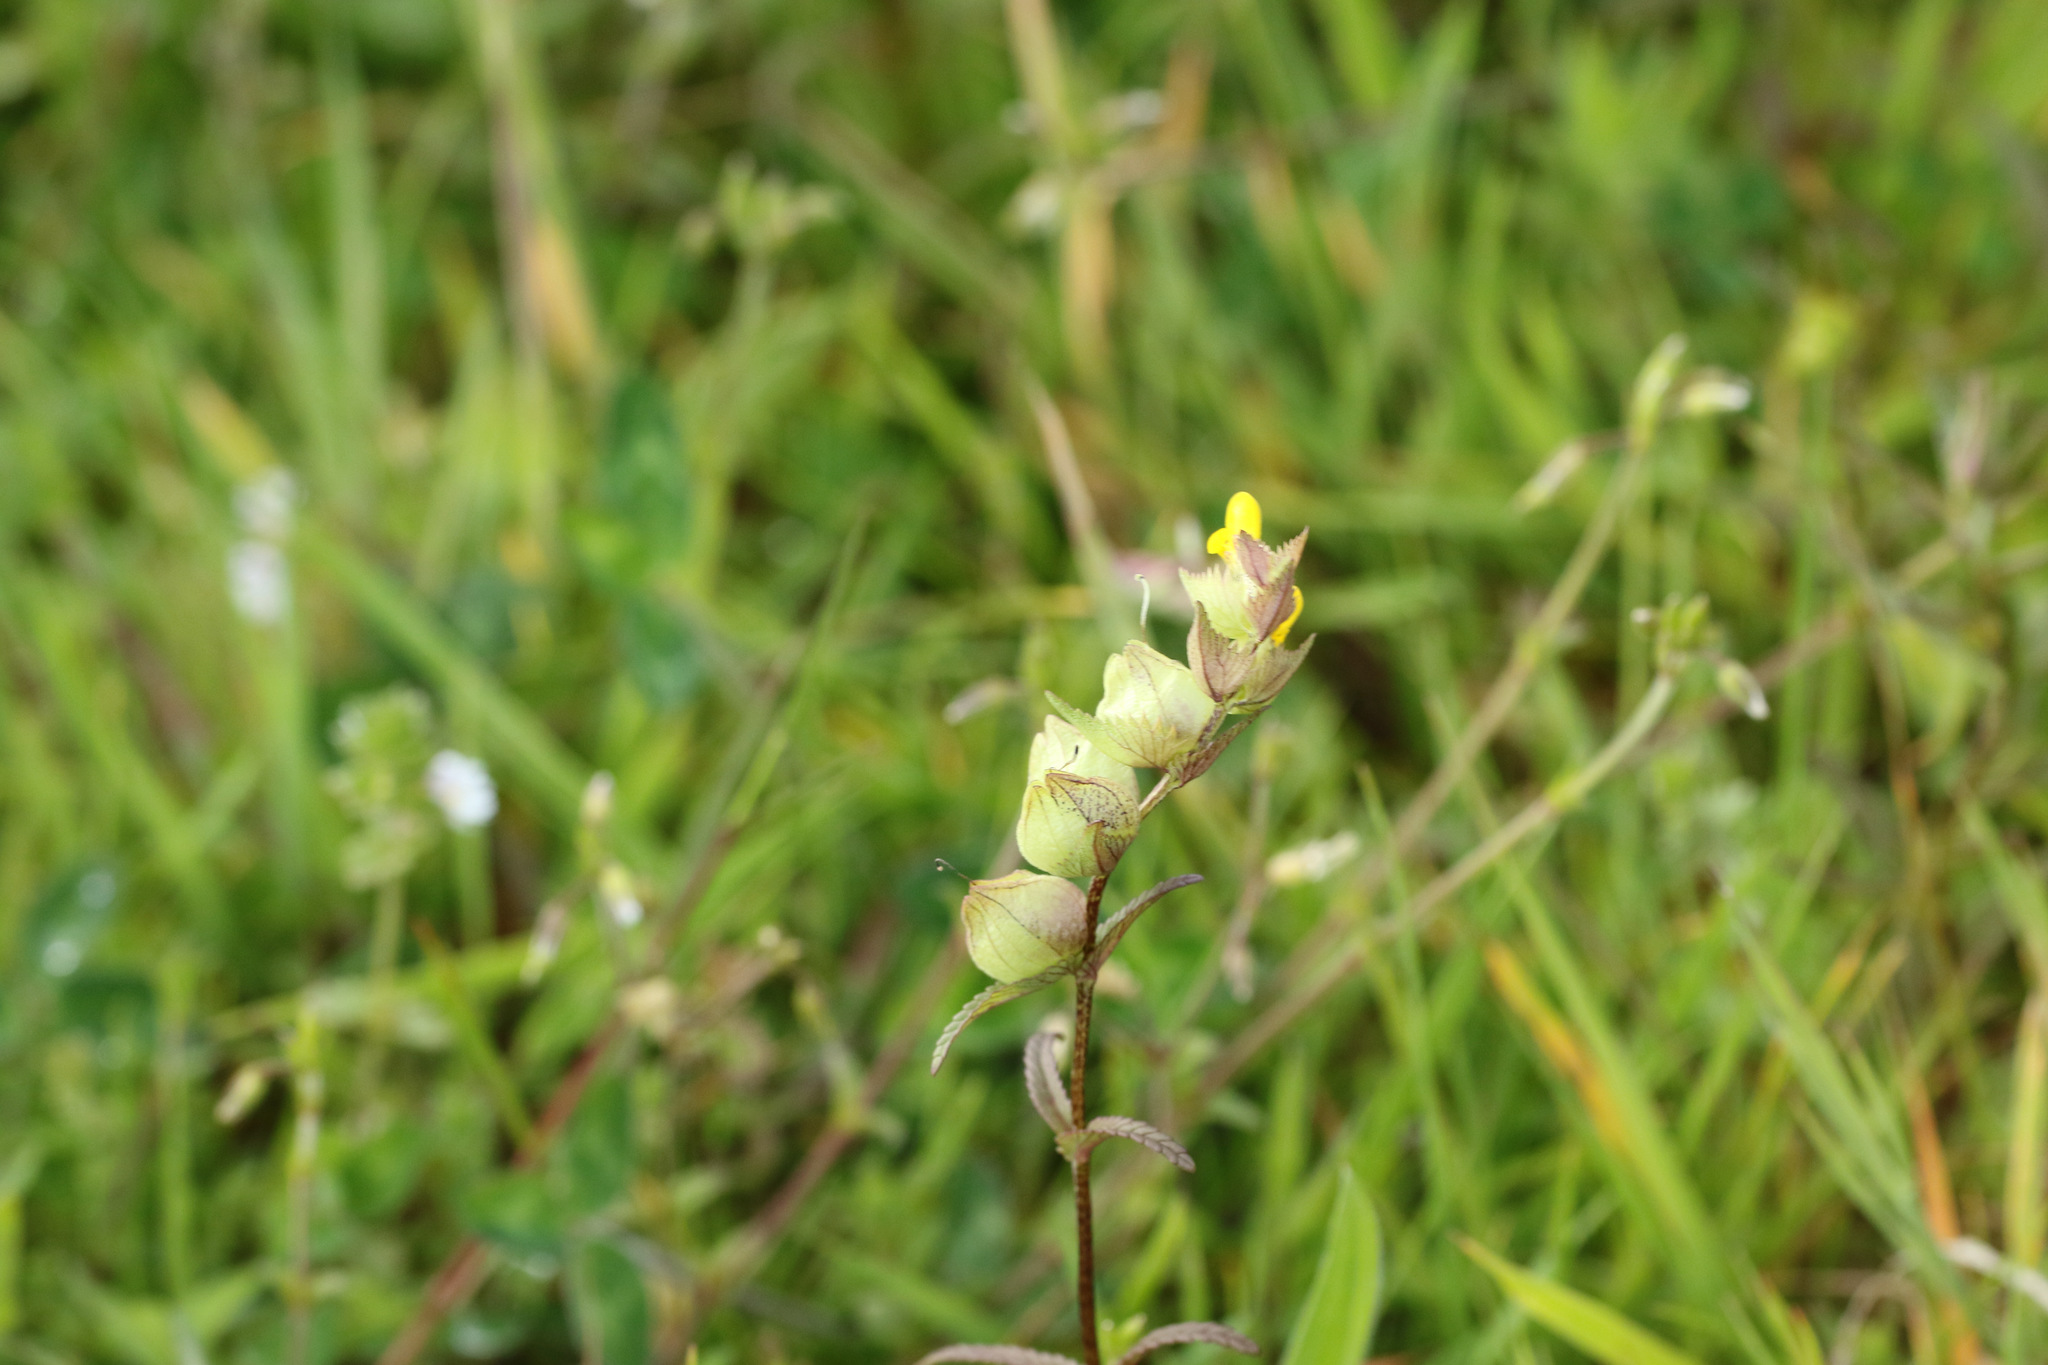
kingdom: Plantae
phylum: Tracheophyta
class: Magnoliopsida
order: Lamiales
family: Orobanchaceae
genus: Rhinanthus
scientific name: Rhinanthus minor
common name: Yellow-rattle
